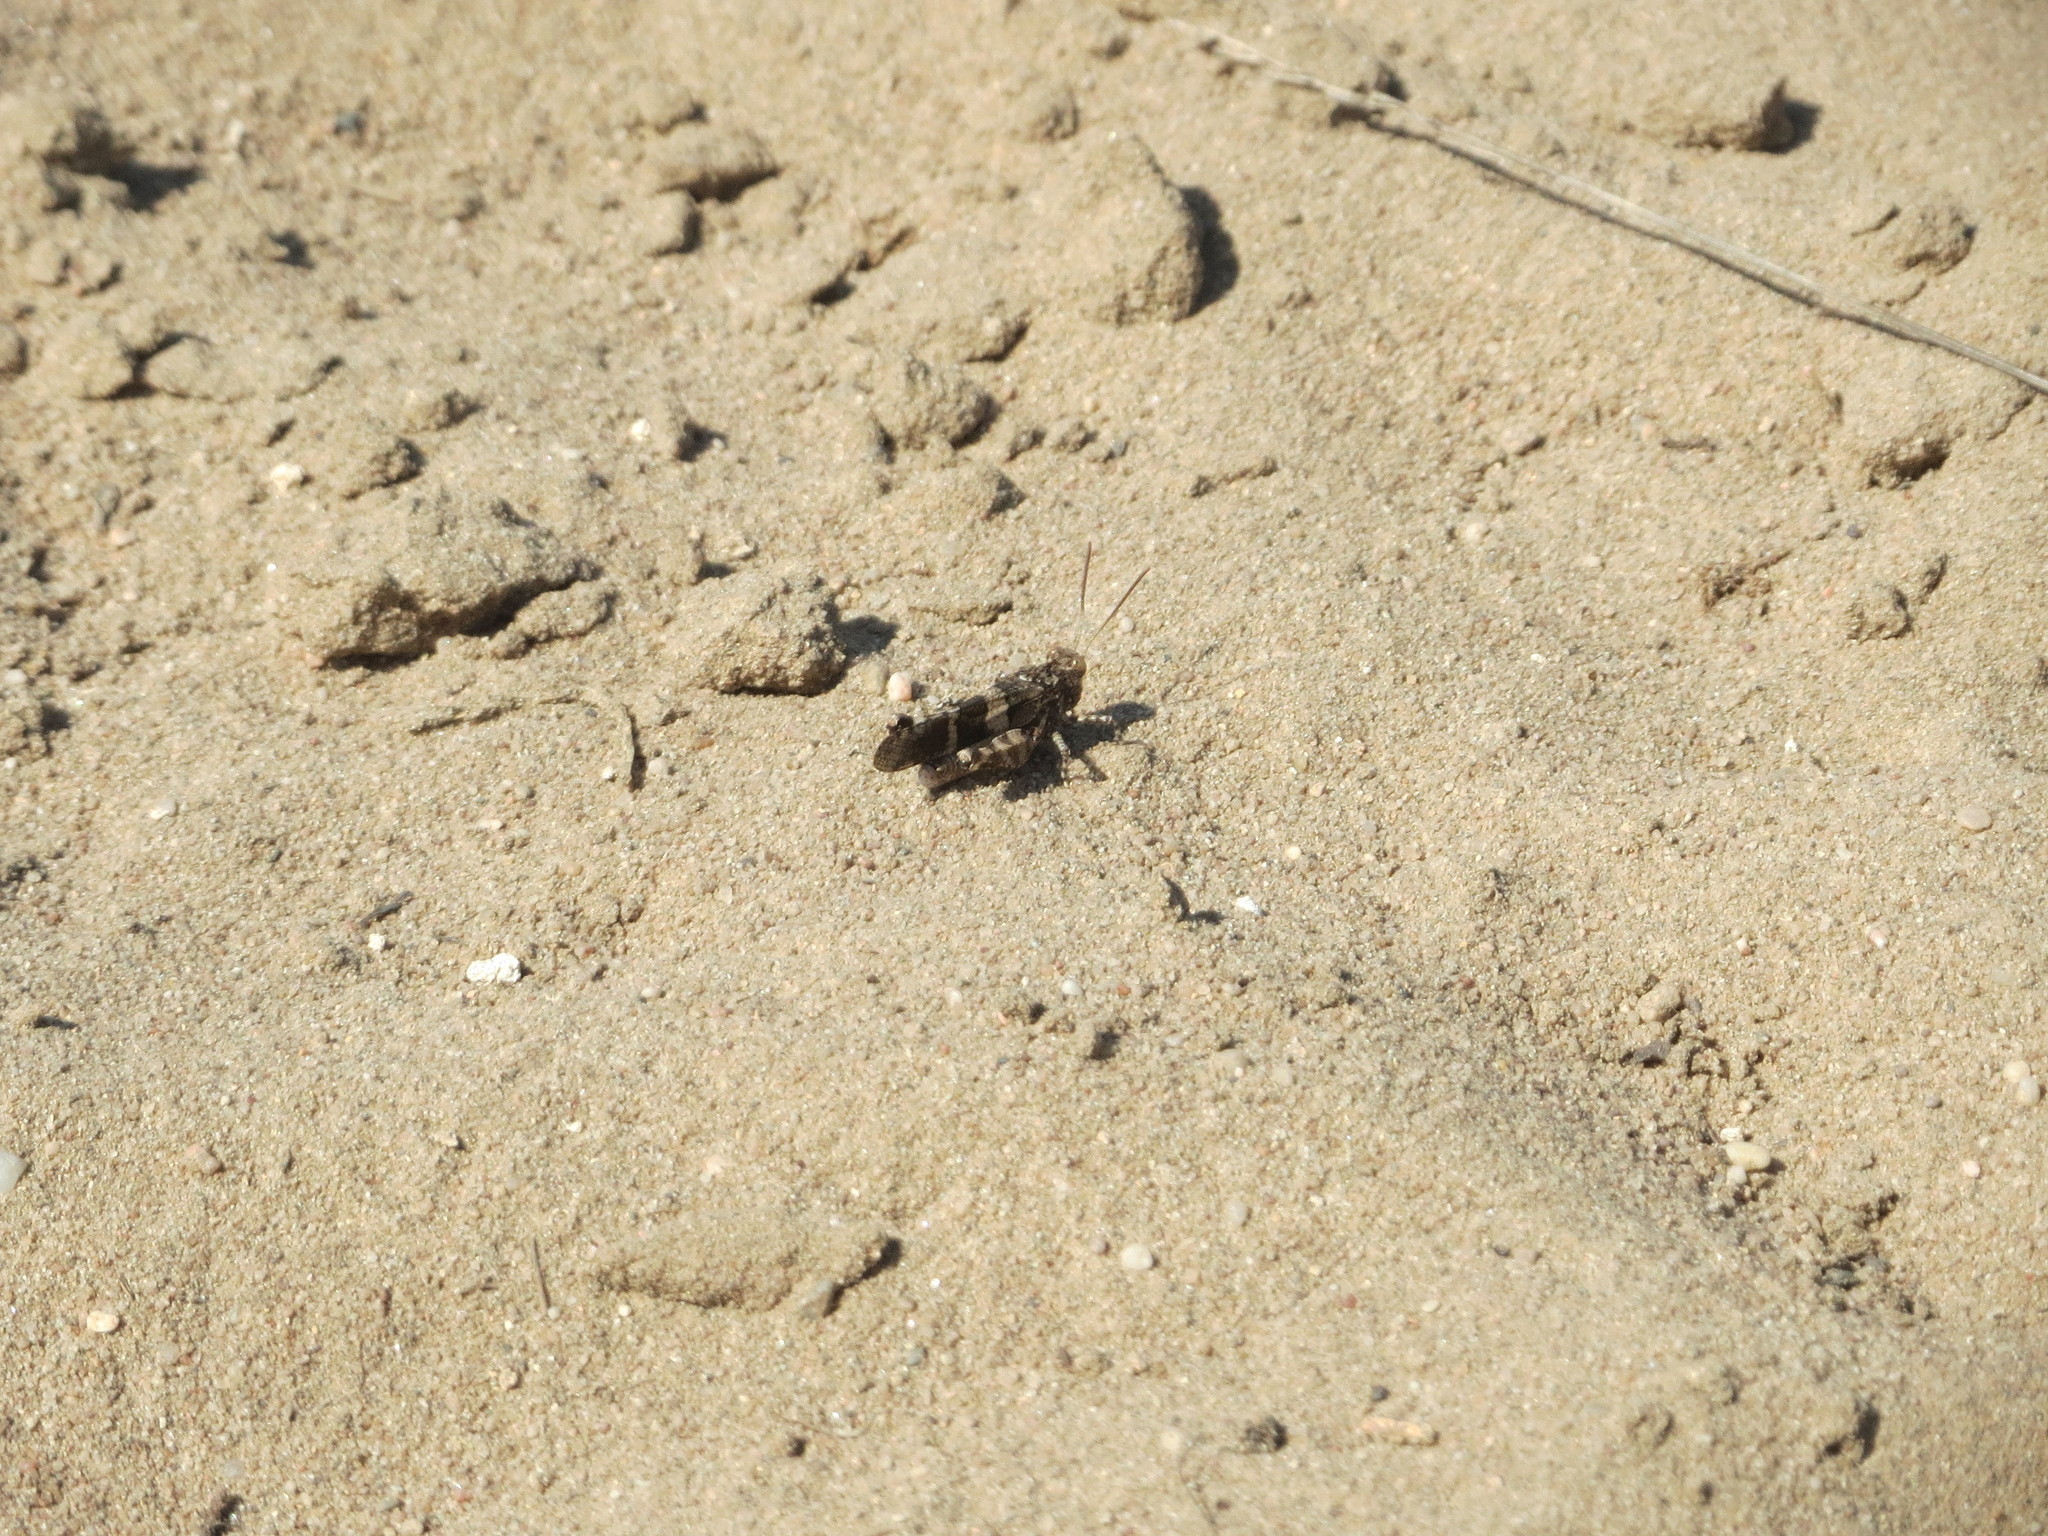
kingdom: Animalia
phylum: Arthropoda
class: Insecta
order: Orthoptera
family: Acrididae
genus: Oedipoda
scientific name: Oedipoda caerulescens
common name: Blue-winged grasshopper
